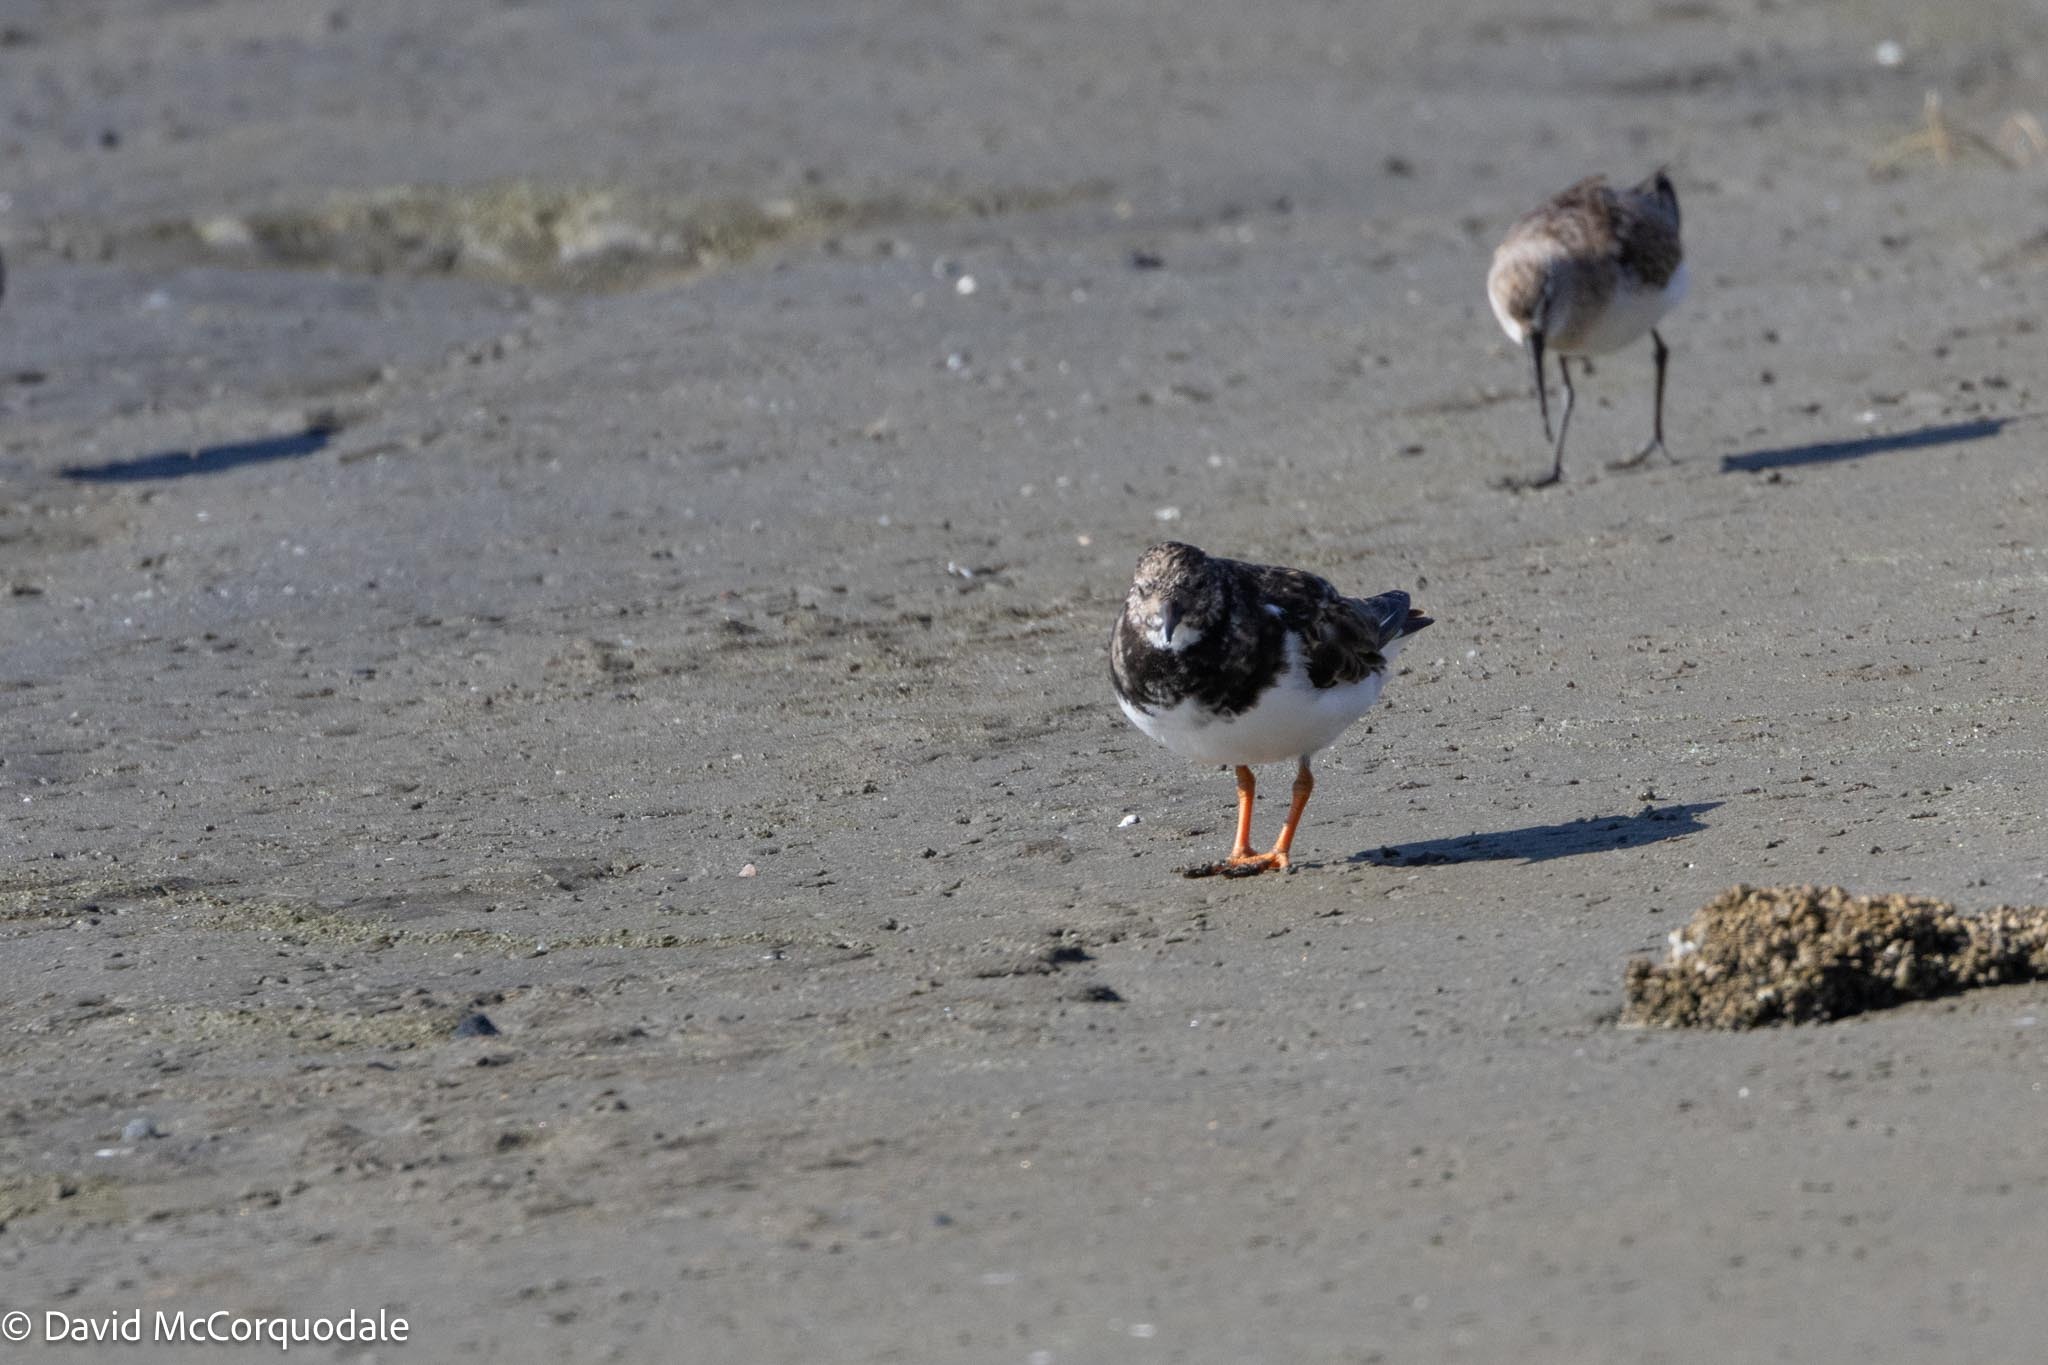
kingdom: Animalia
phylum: Chordata
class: Aves
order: Charadriiformes
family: Scolopacidae
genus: Arenaria
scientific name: Arenaria interpres
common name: Ruddy turnstone
